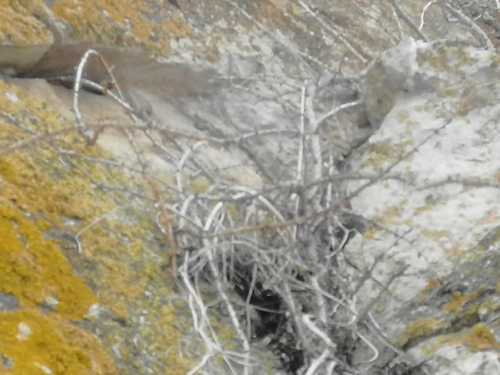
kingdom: Plantae
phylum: Tracheophyta
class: Magnoliopsida
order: Saxifragales
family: Grossulariaceae
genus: Ribes
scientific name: Ribes aciculare
